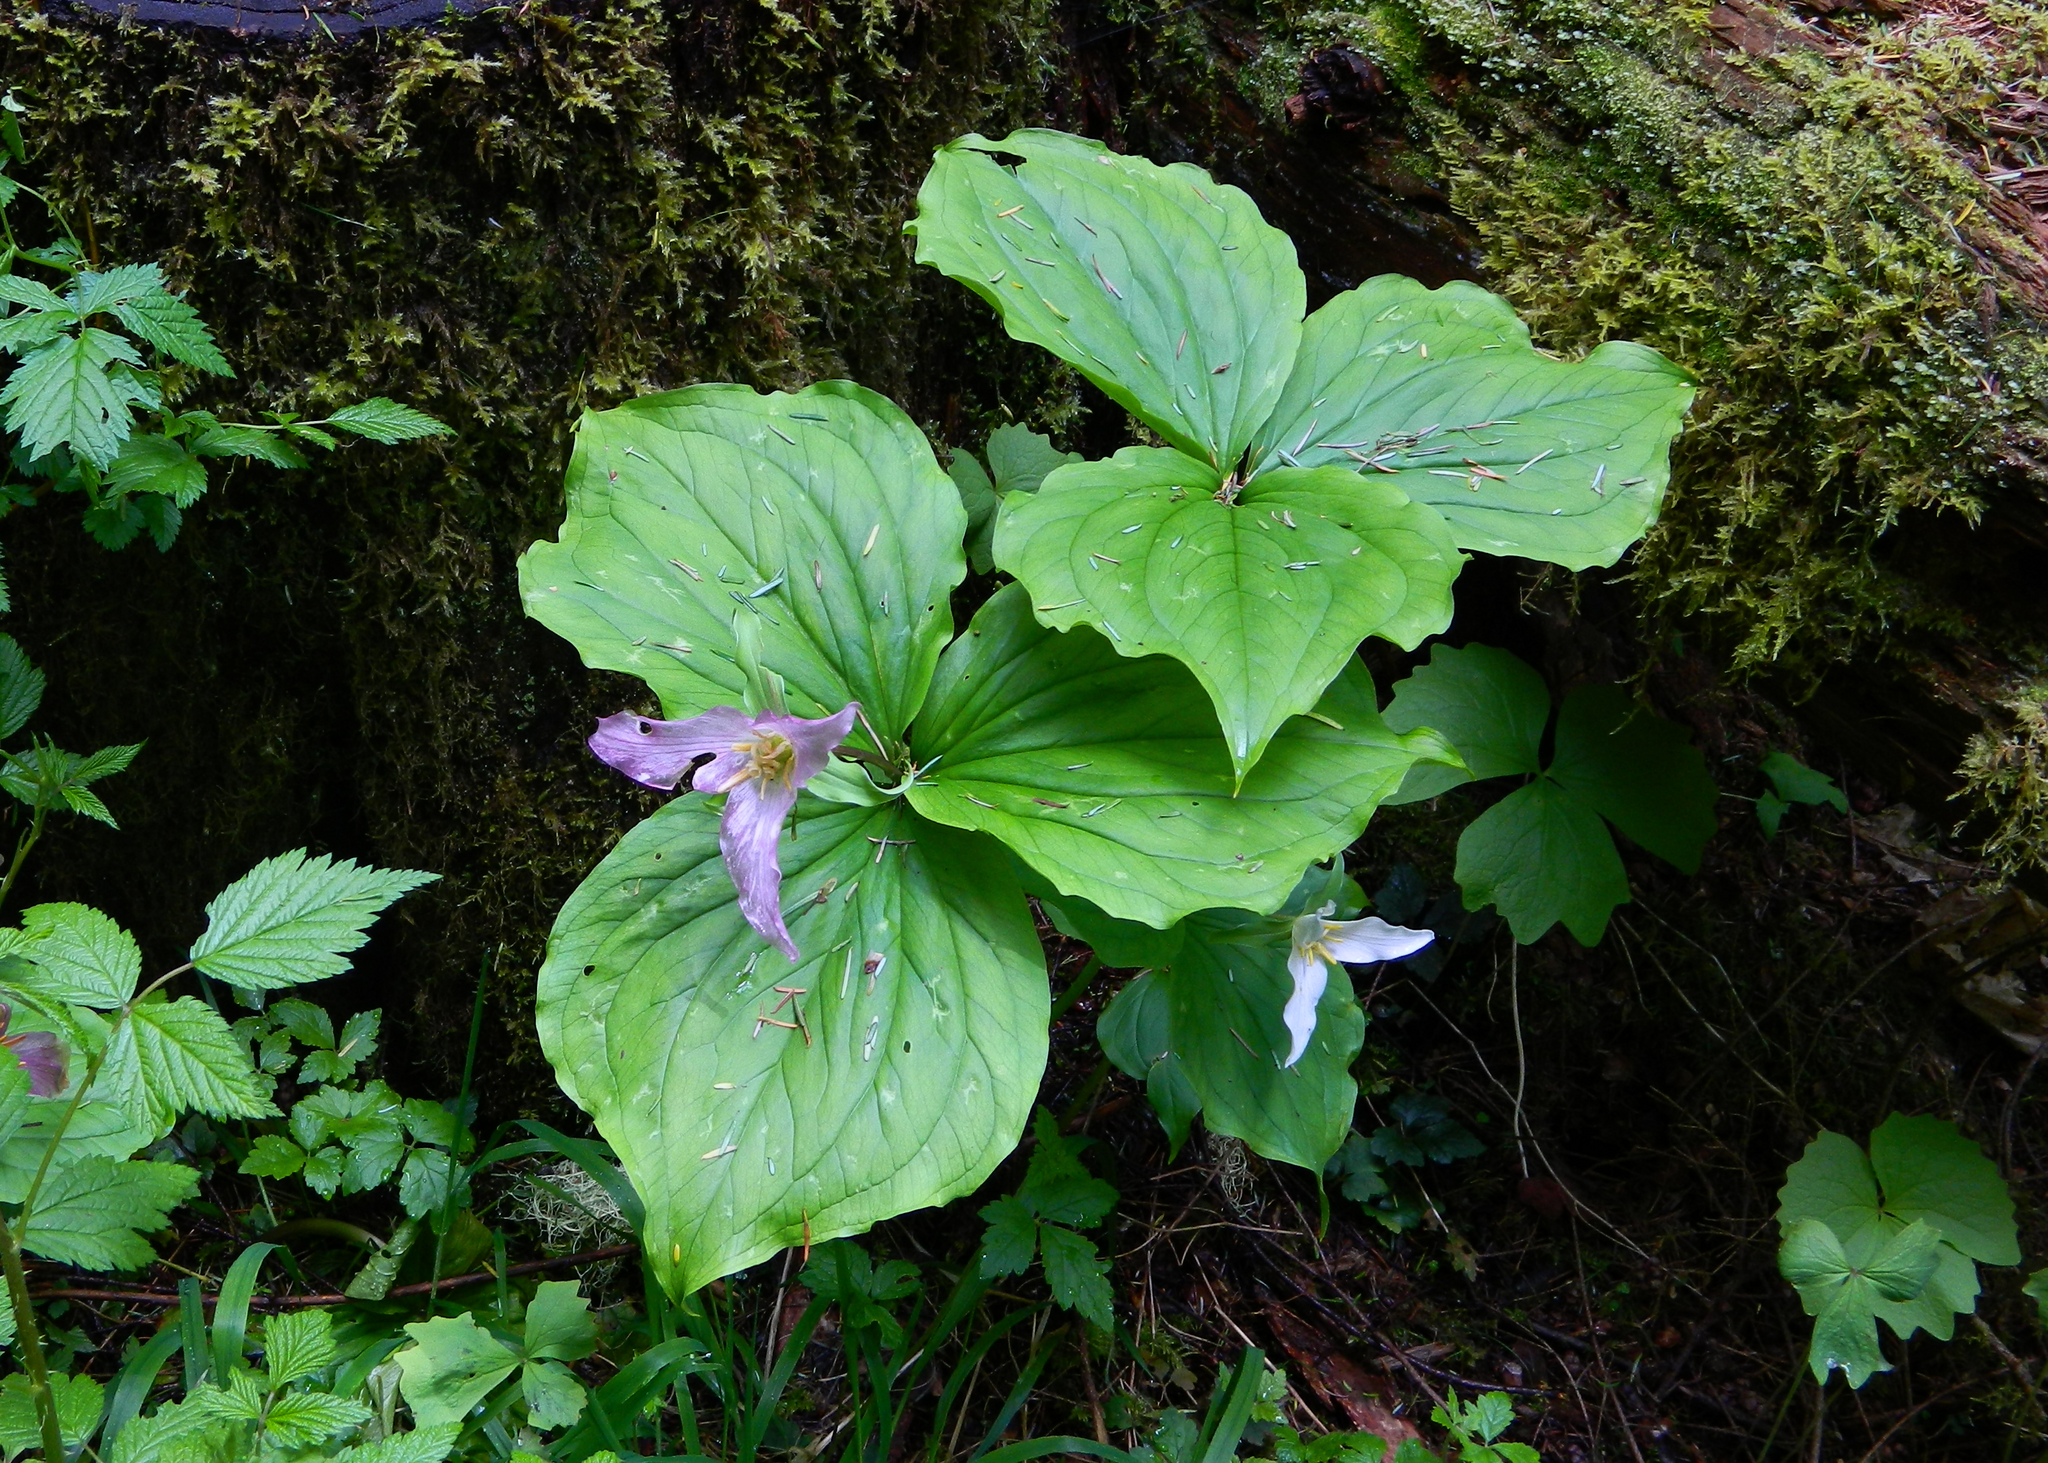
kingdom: Plantae
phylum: Tracheophyta
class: Liliopsida
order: Liliales
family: Melanthiaceae
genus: Trillium
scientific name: Trillium ovatum
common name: Pacific trillium
